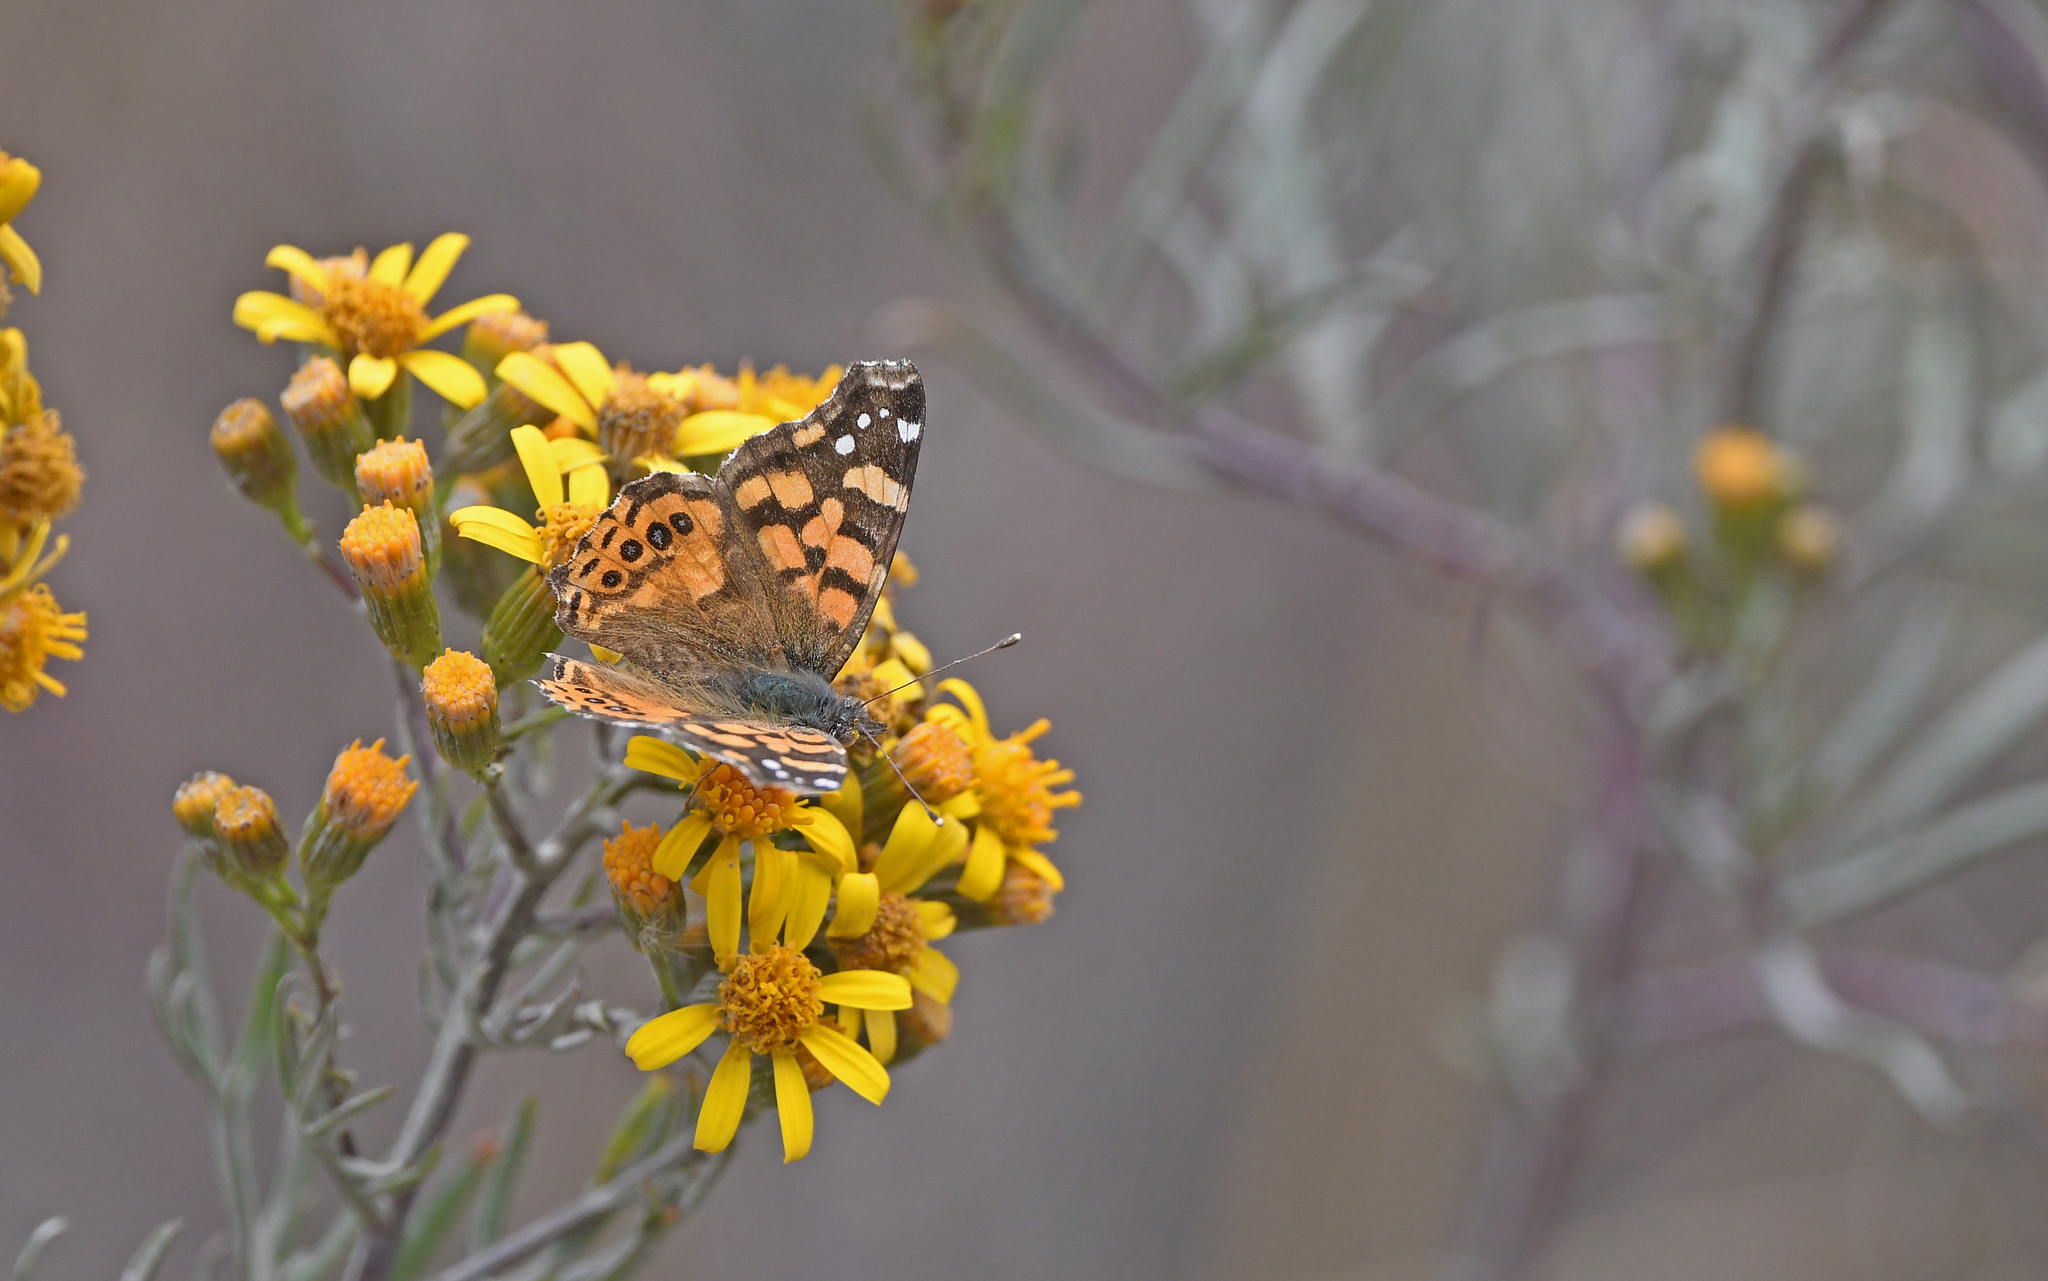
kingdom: Animalia
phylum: Arthropoda
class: Insecta
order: Lepidoptera
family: Nymphalidae
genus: Vanessa
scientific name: Vanessa carye
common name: Subtropical lady
